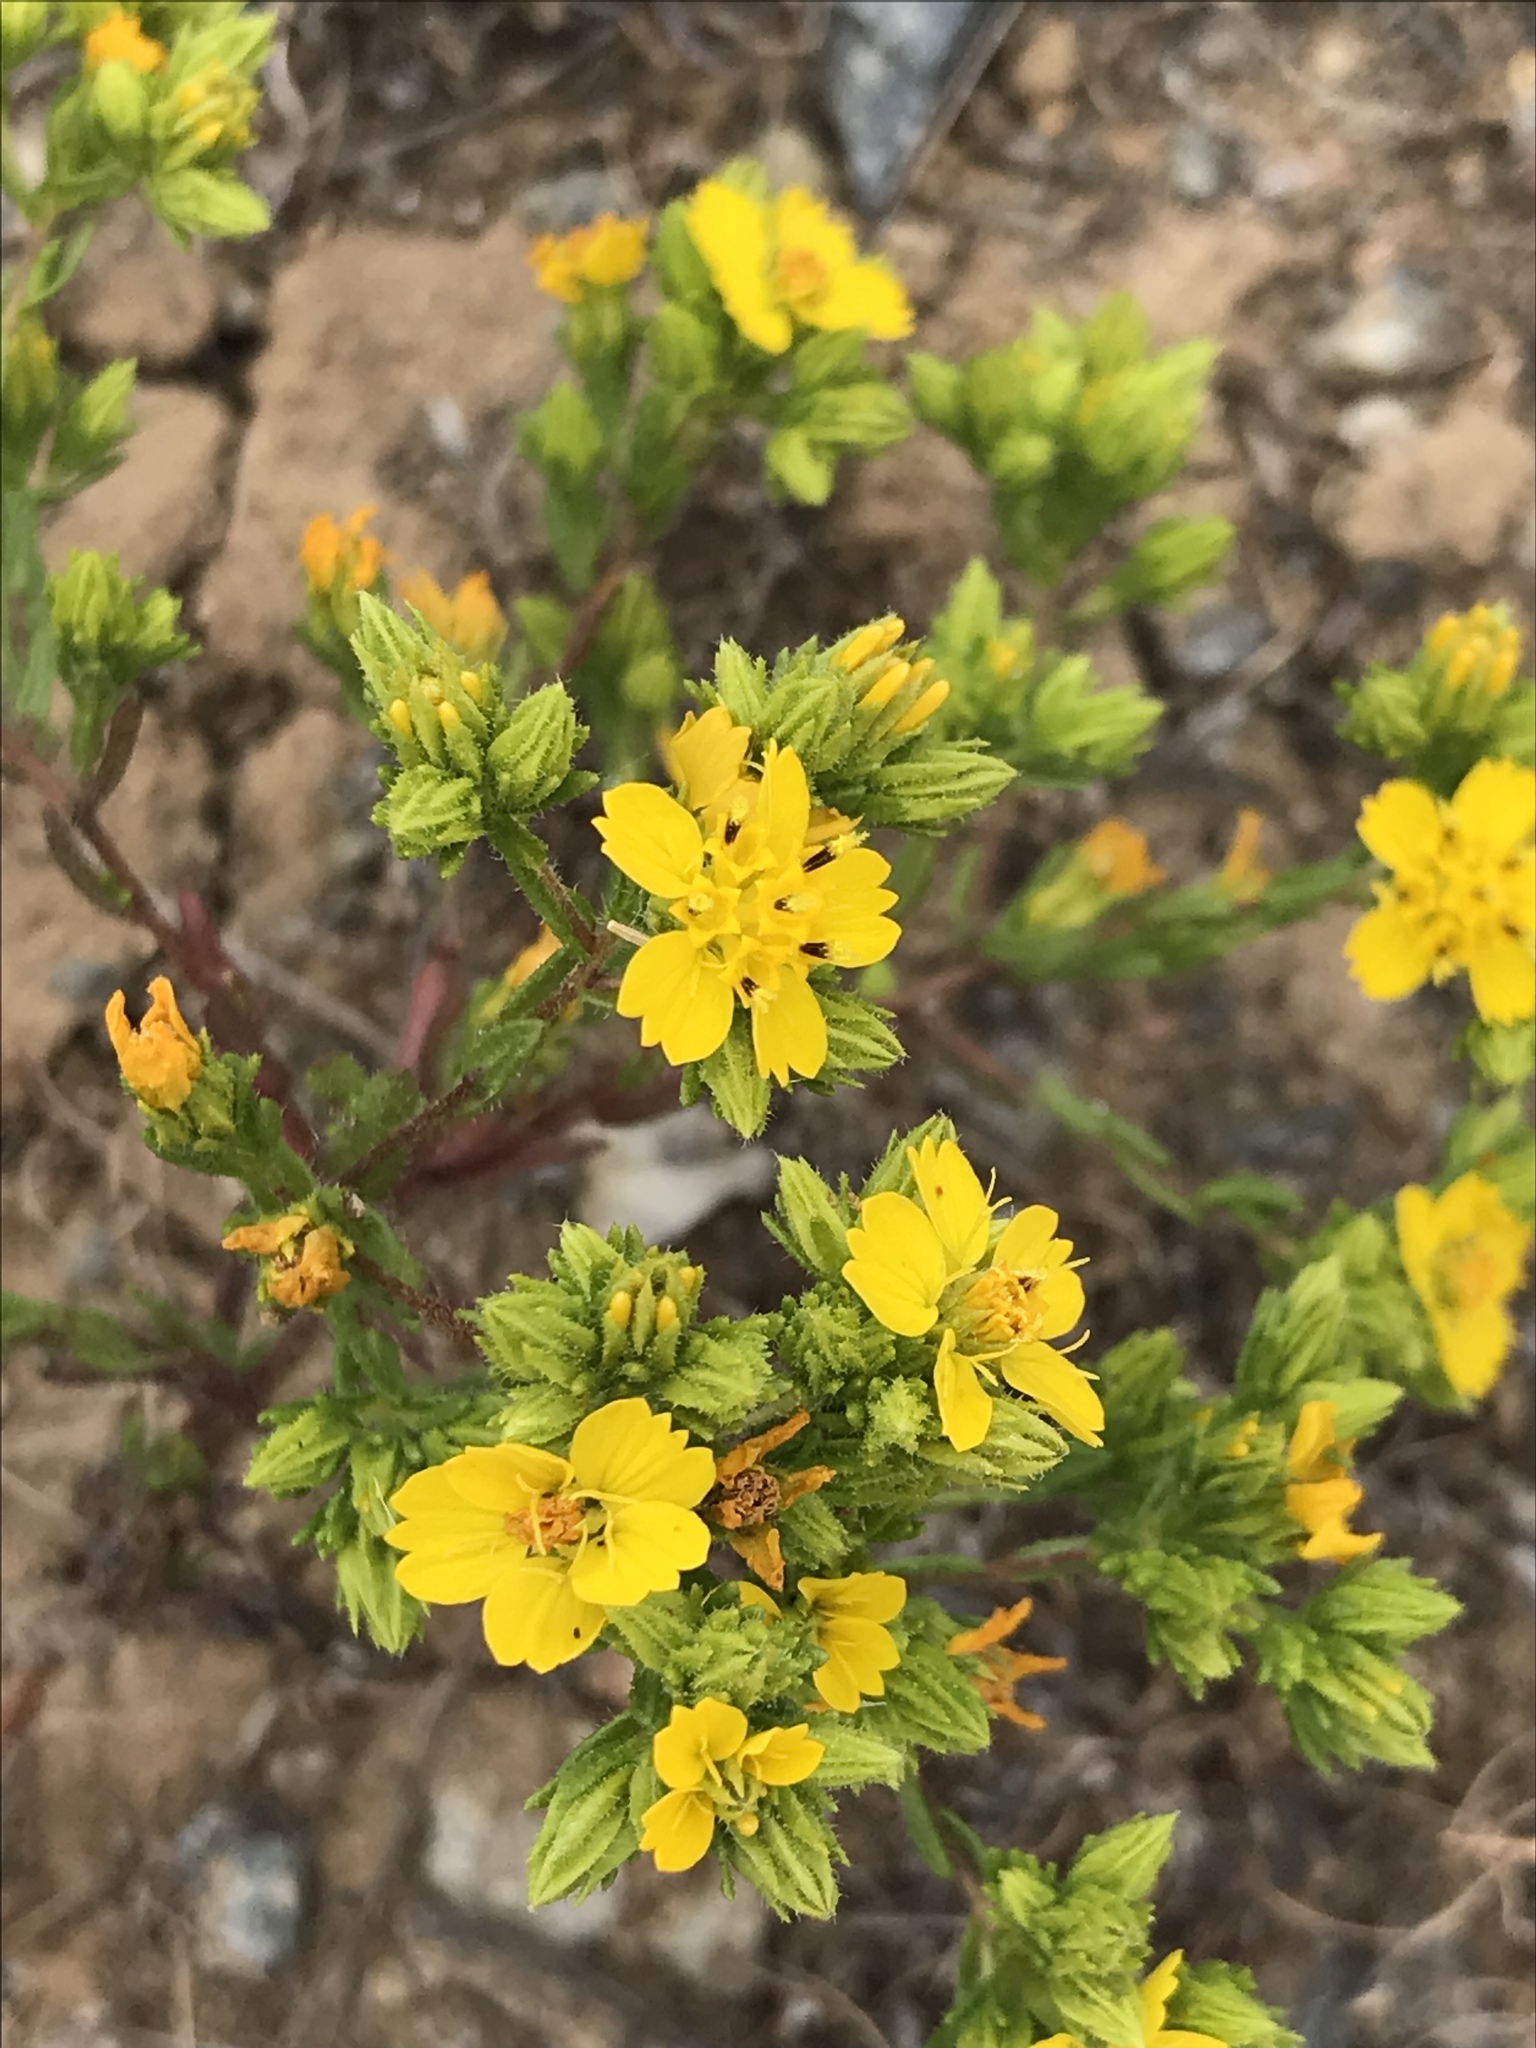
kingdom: Plantae
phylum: Tracheophyta
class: Magnoliopsida
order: Asterales
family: Asteraceae
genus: Deinandra
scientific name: Deinandra fasciculata
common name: Clustered tarweed
